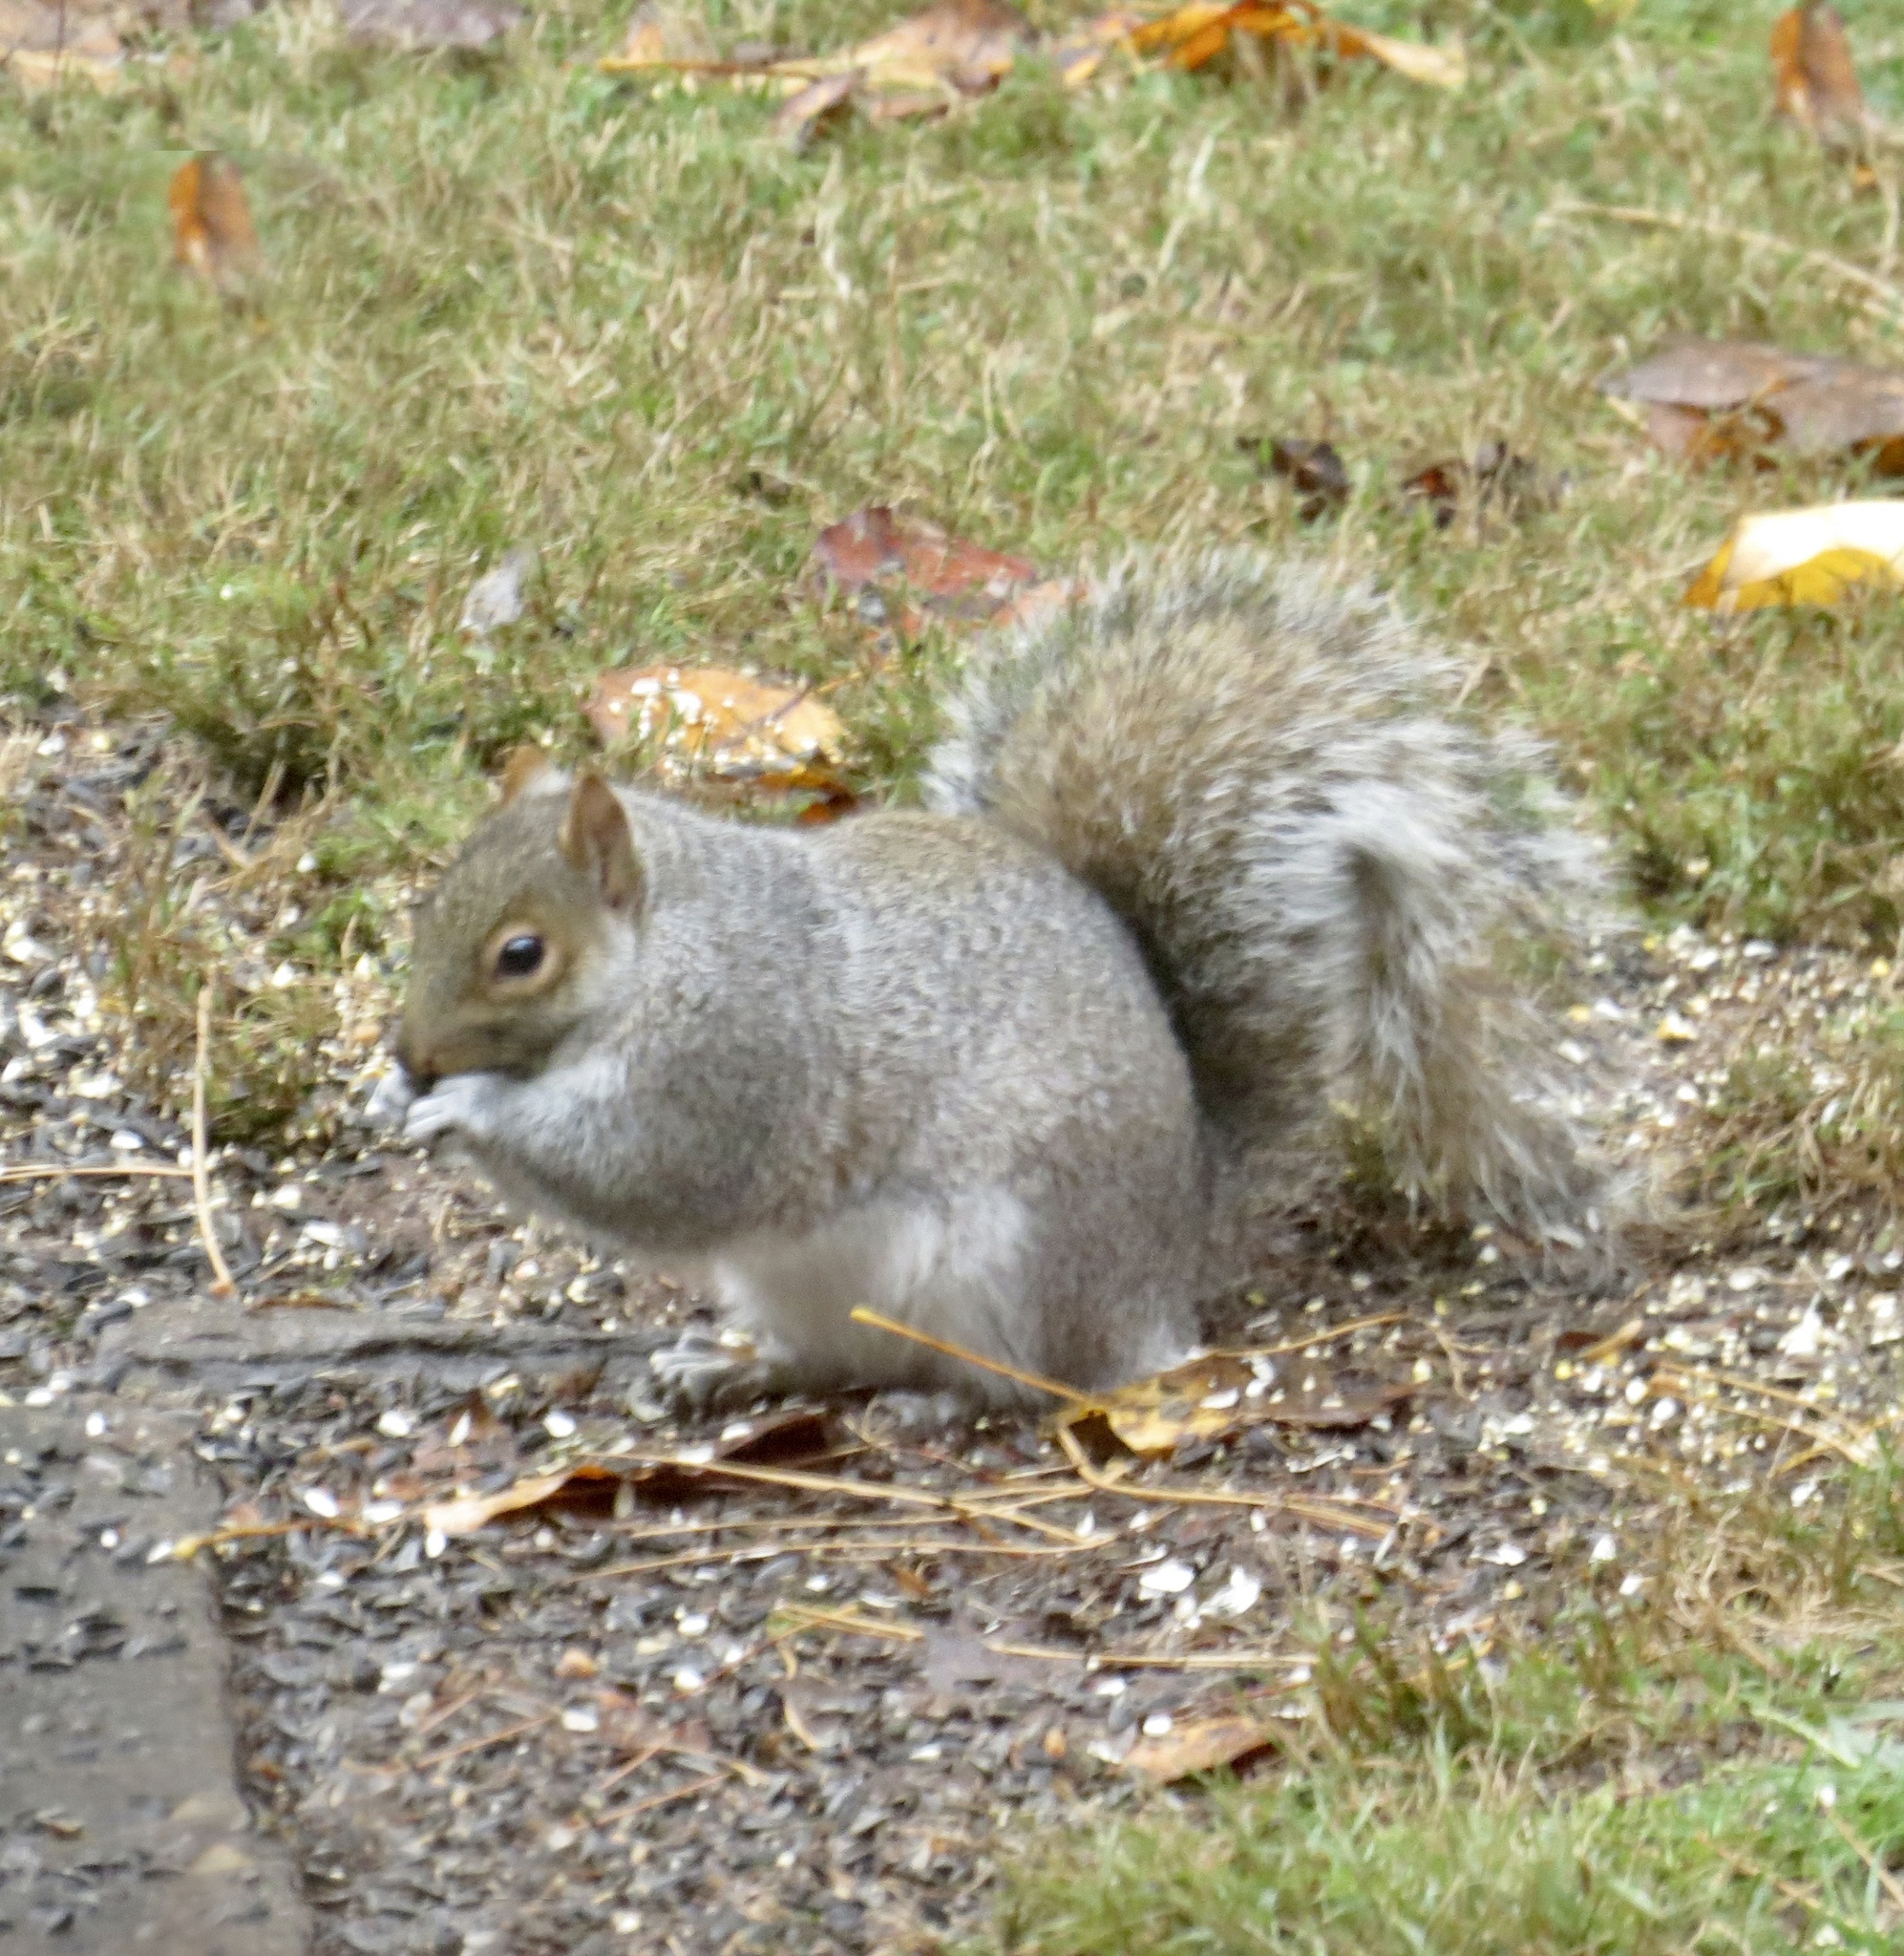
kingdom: Animalia
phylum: Chordata
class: Mammalia
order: Rodentia
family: Sciuridae
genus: Sciurus
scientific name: Sciurus carolinensis
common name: Eastern gray squirrel
